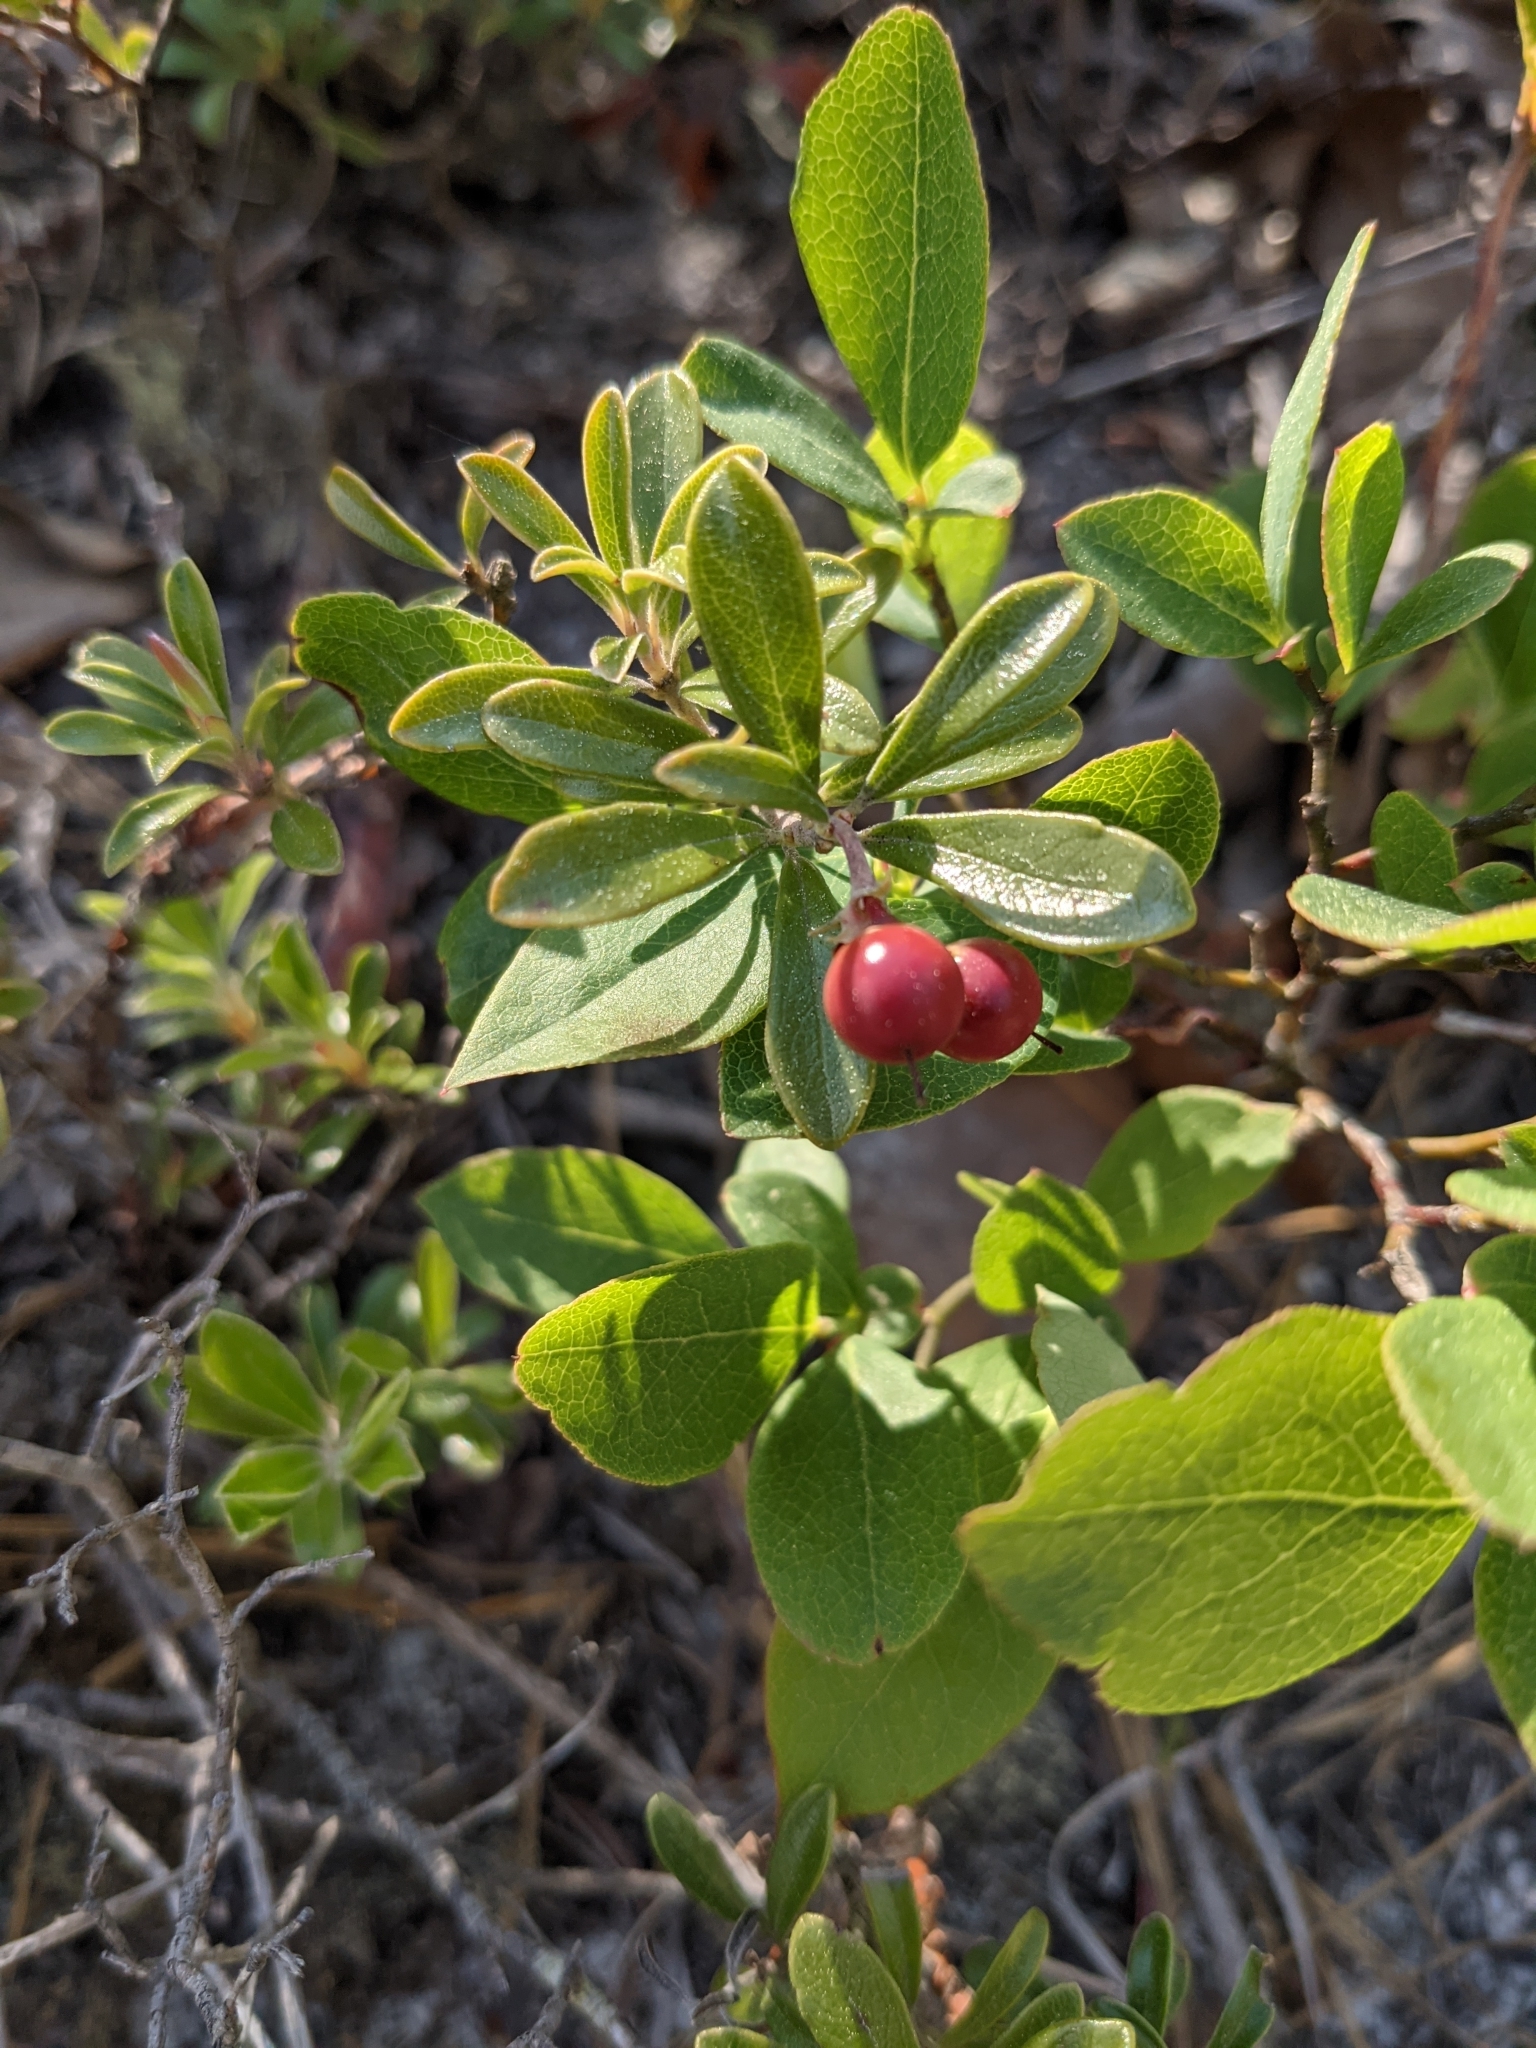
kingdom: Plantae
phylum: Tracheophyta
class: Magnoliopsida
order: Ericales
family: Ericaceae
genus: Arctostaphylos
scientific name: Arctostaphylos uva-ursi
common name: Bearberry
